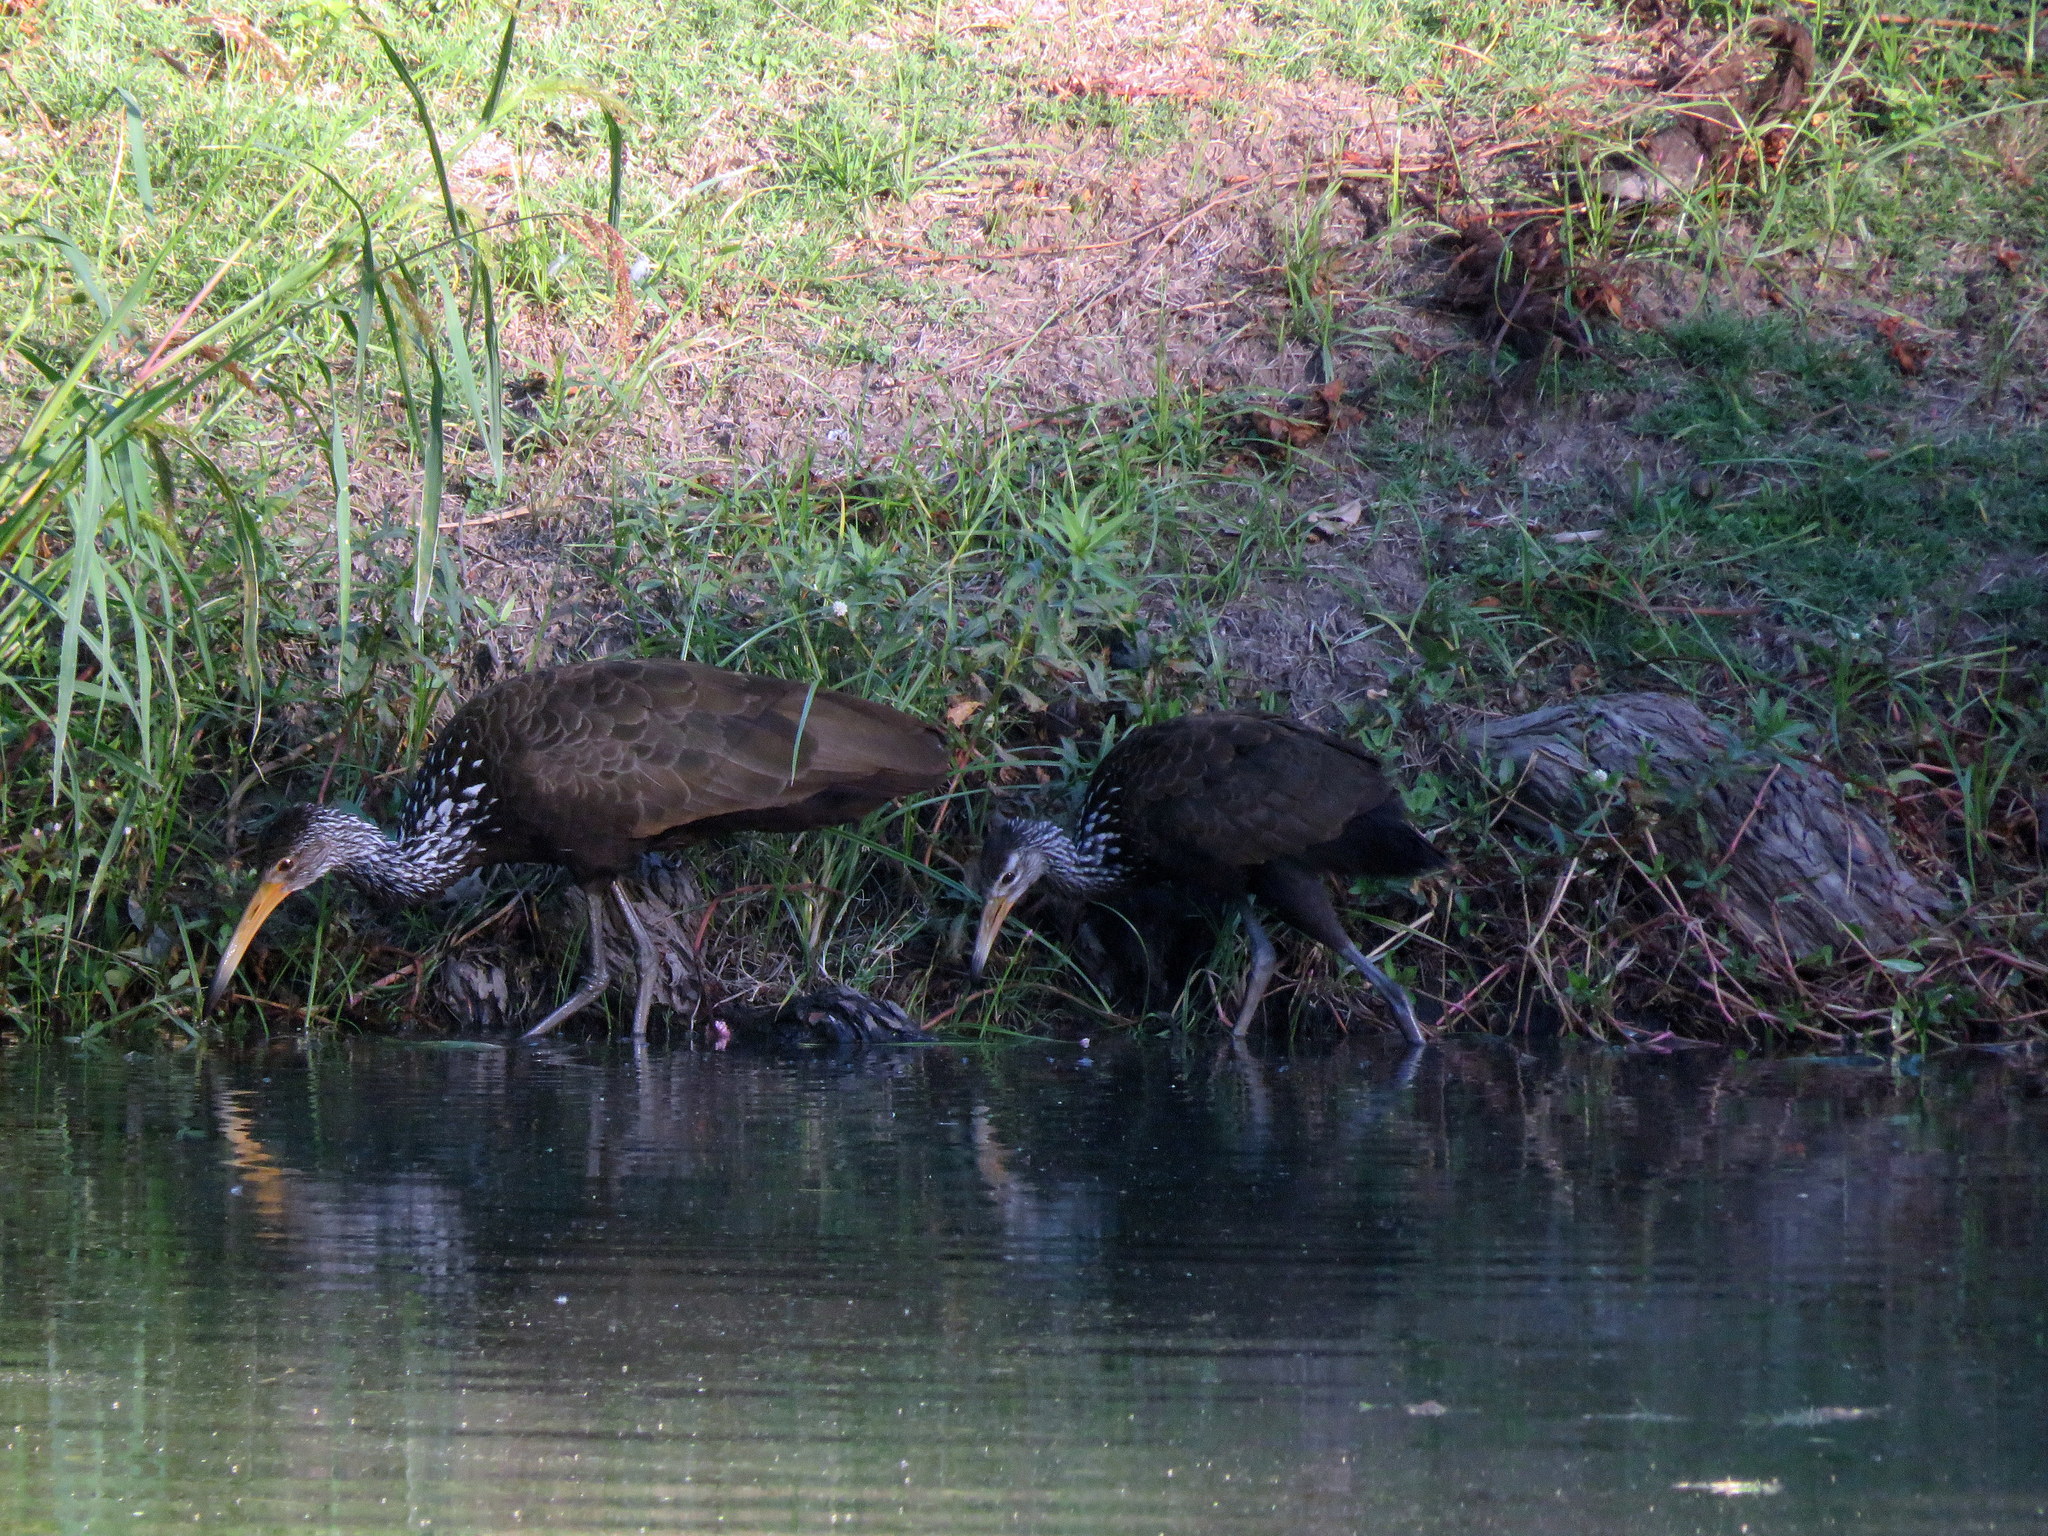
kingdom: Animalia
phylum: Chordata
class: Aves
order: Gruiformes
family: Aramidae
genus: Aramus
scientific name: Aramus guarauna
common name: Limpkin
